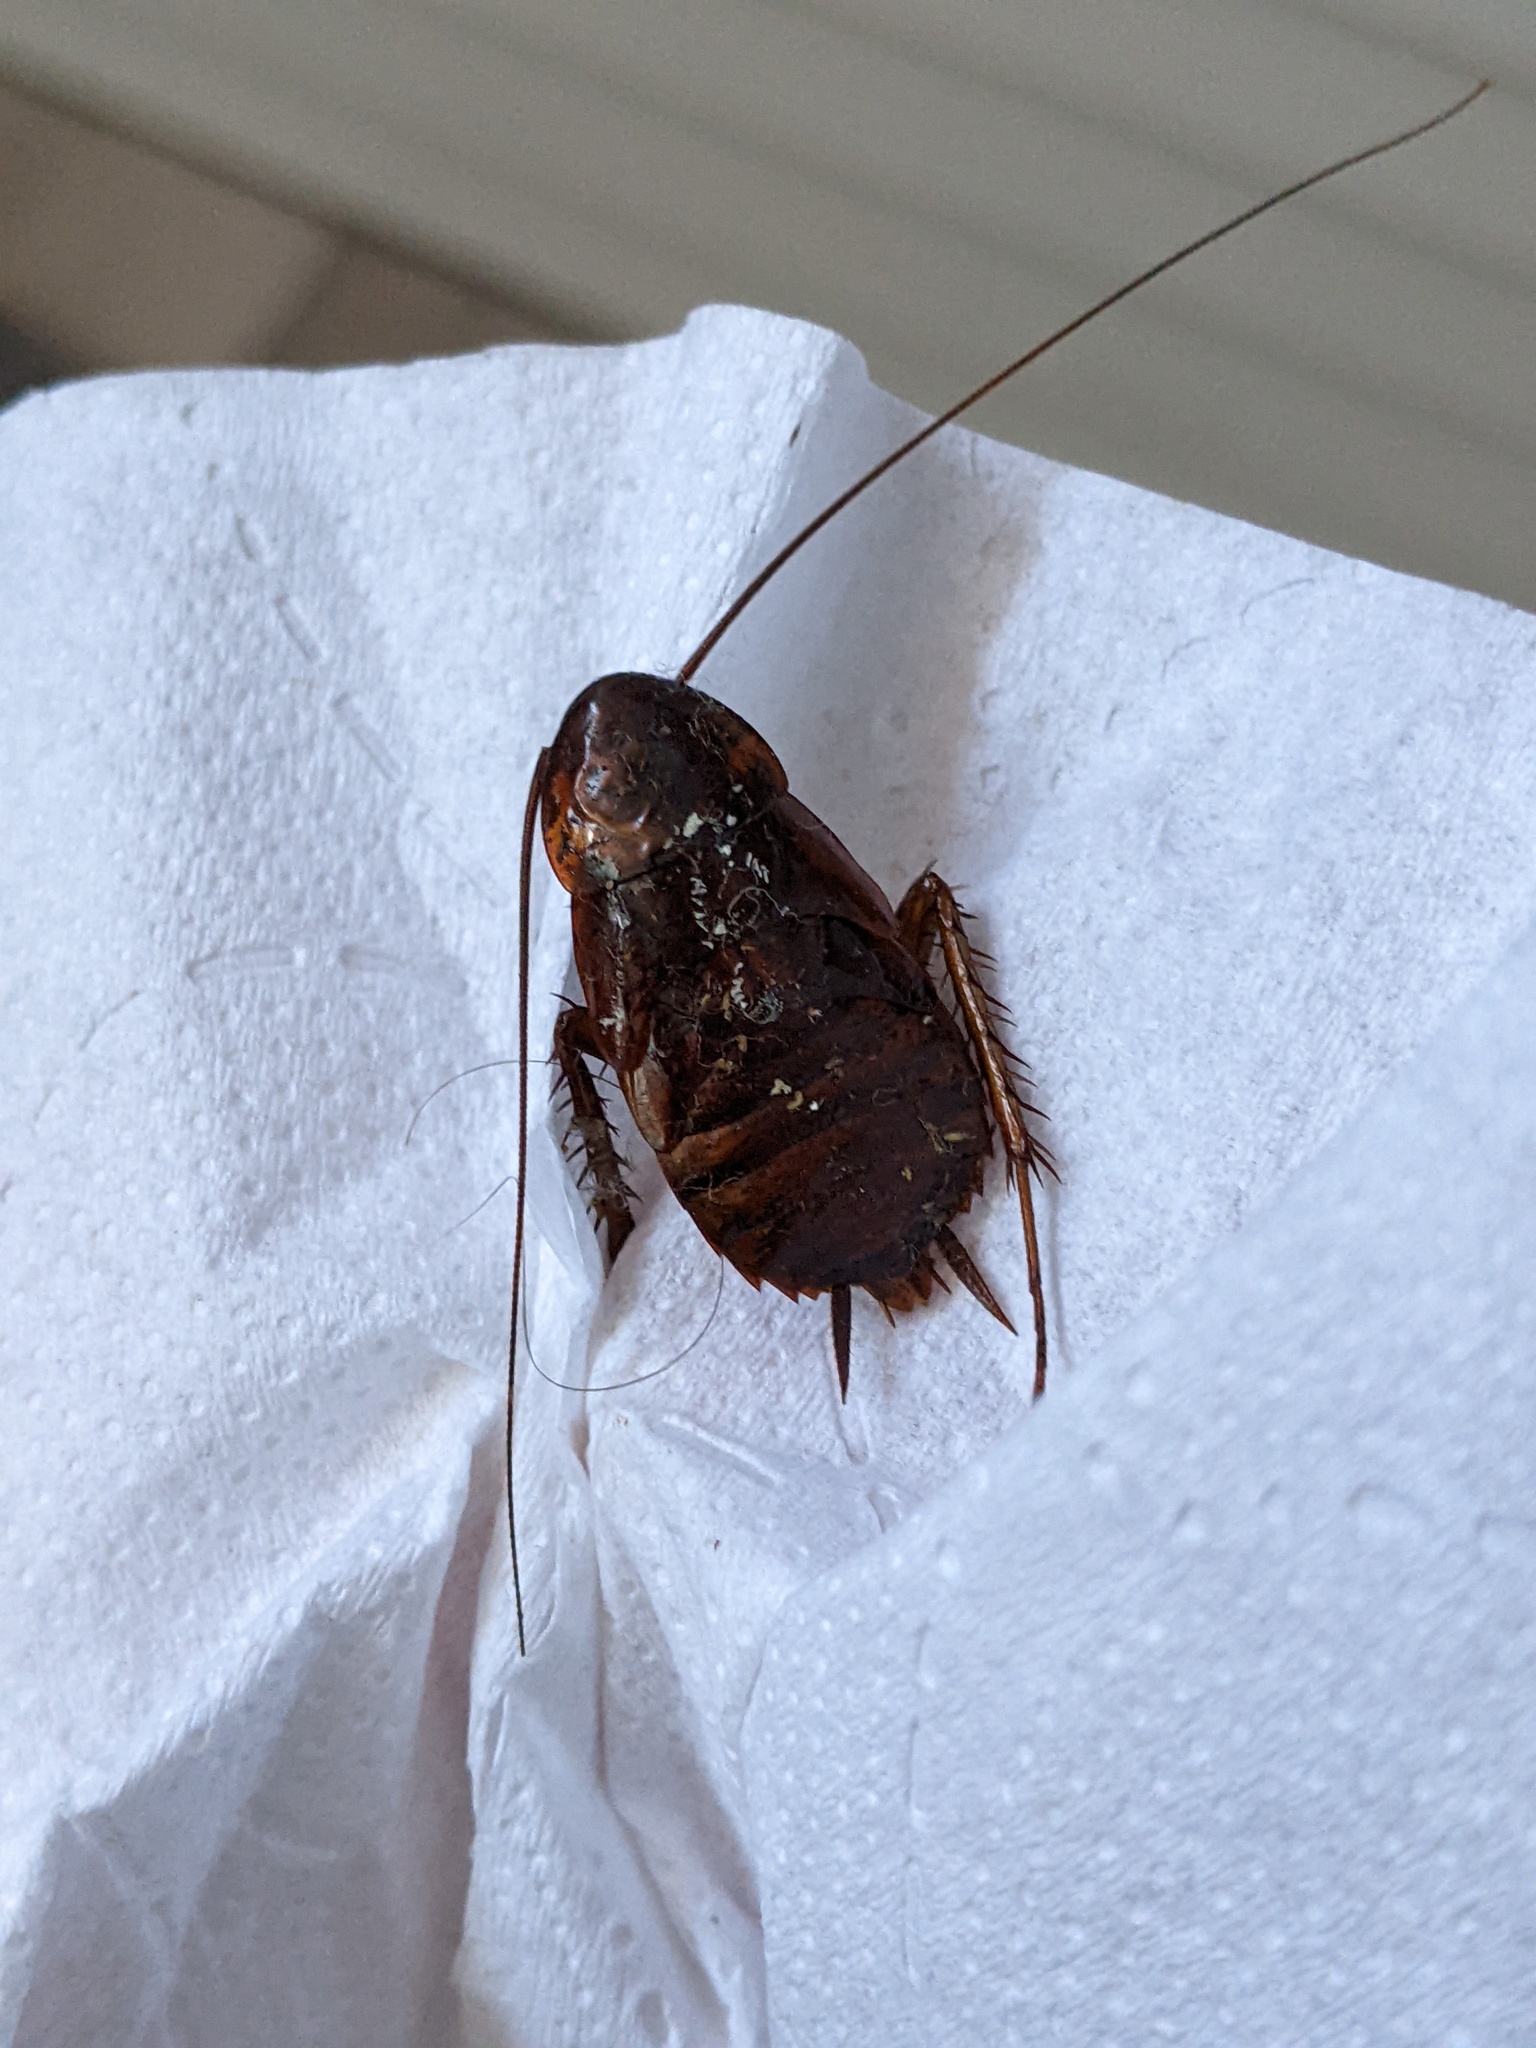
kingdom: Animalia
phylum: Arthropoda
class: Insecta
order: Blattodea
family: Blattidae
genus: Periplaneta
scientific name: Periplaneta americana
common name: American cockroach
